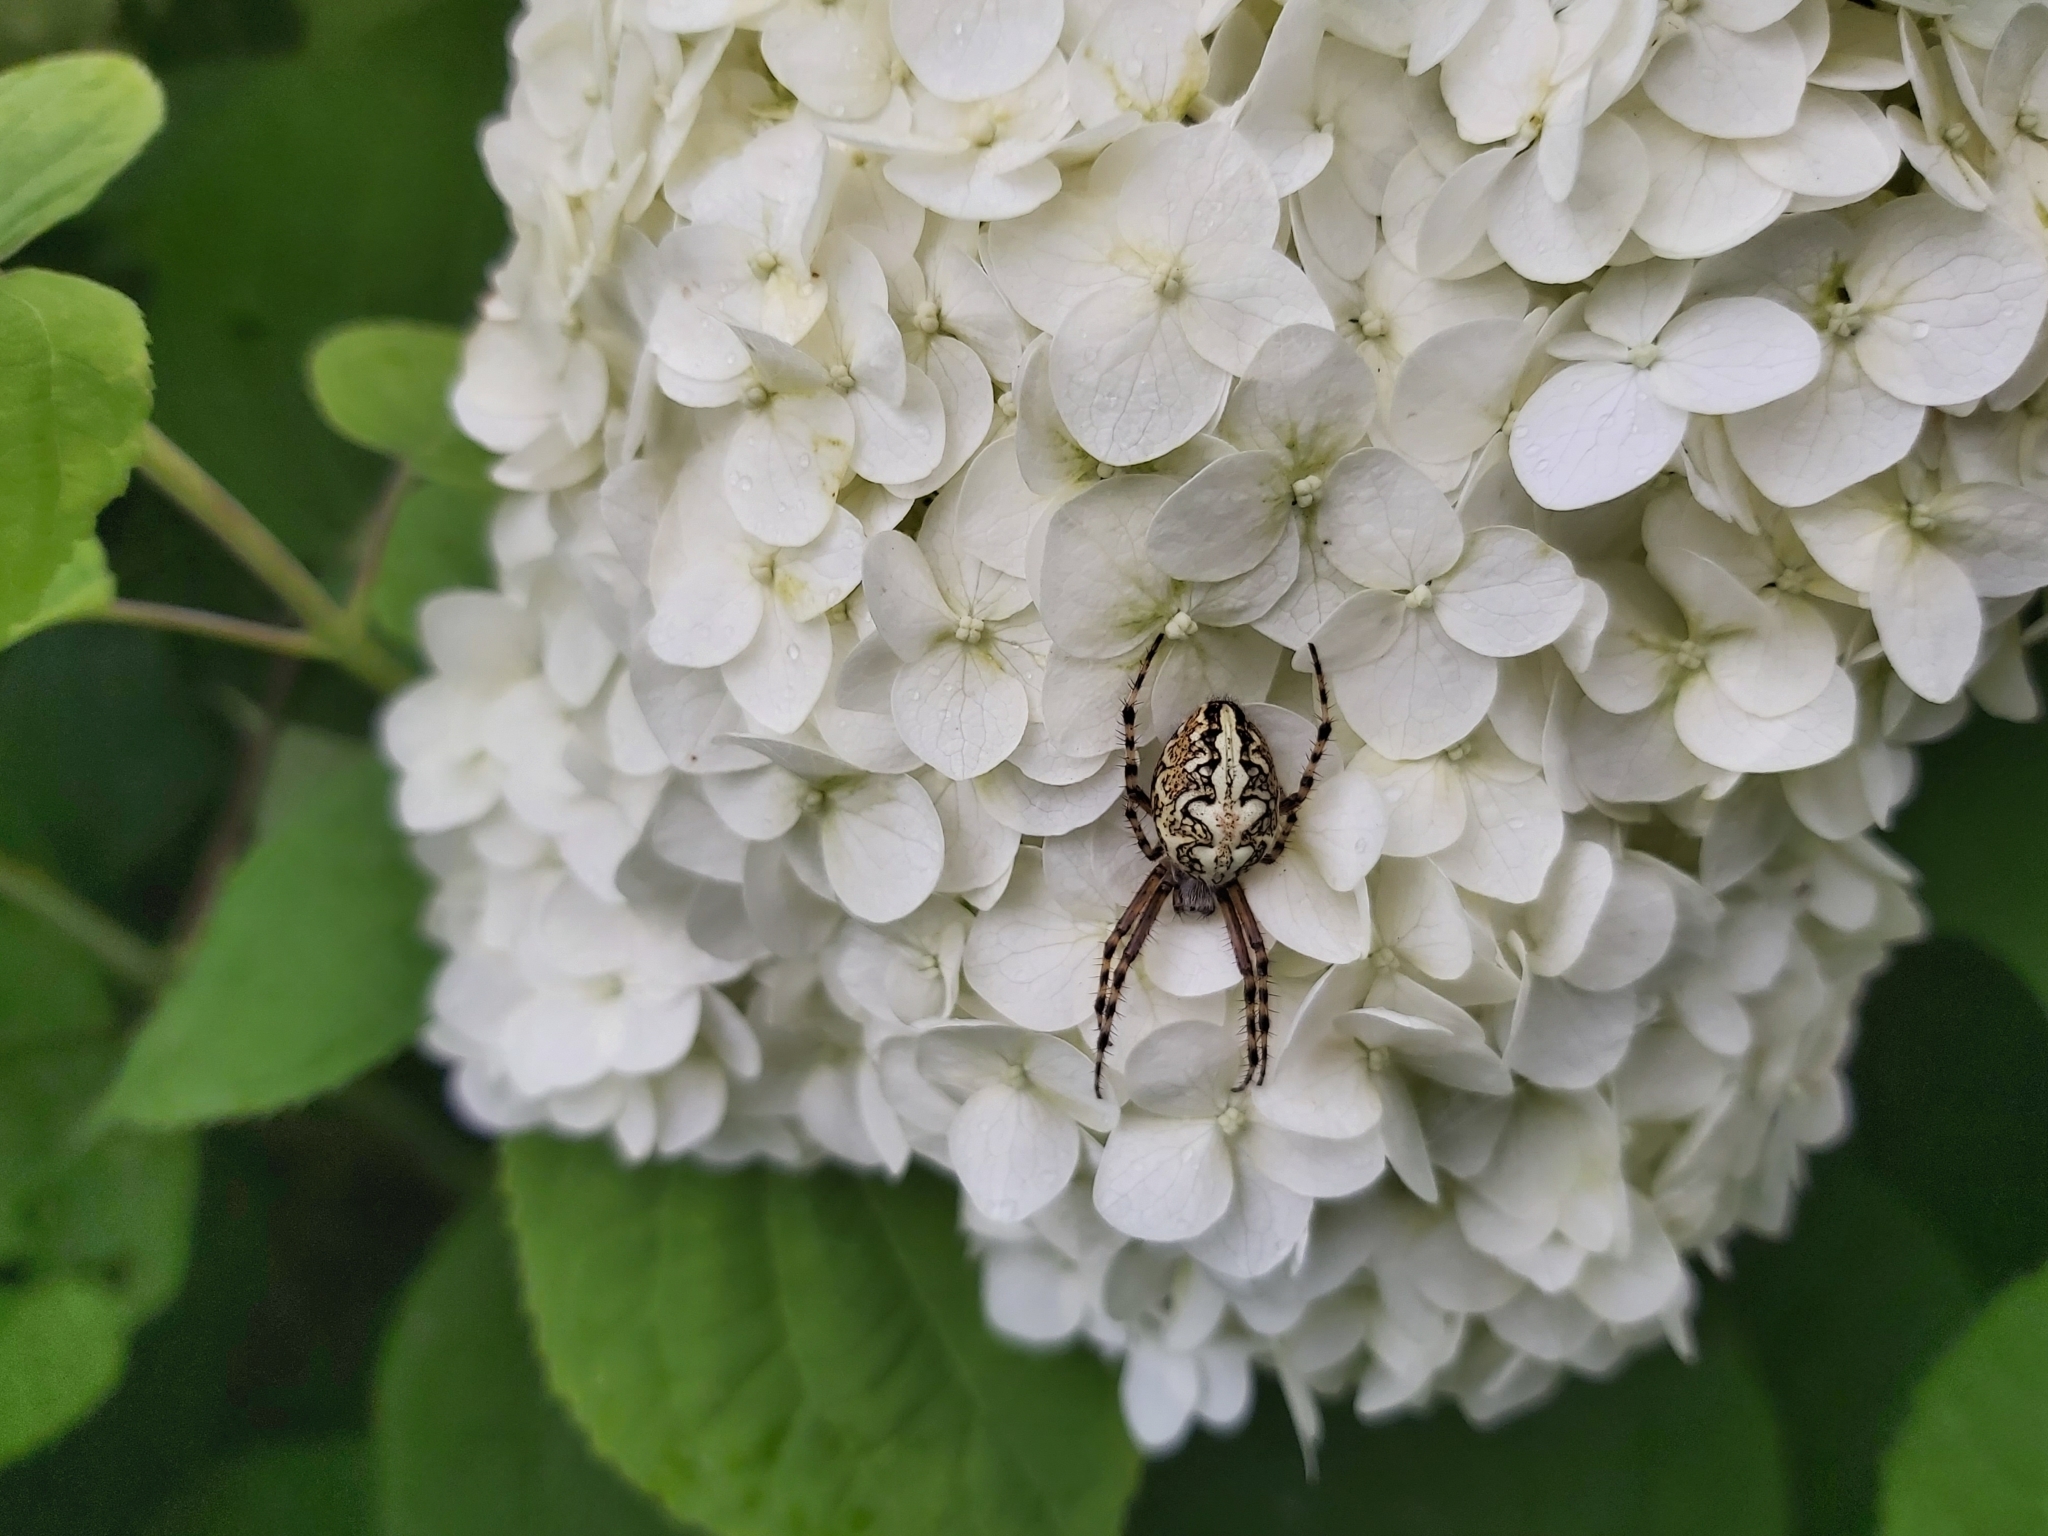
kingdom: Animalia
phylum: Arthropoda
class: Arachnida
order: Araneae
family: Araneidae
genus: Aculepeira
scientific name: Aculepeira ceropegia
